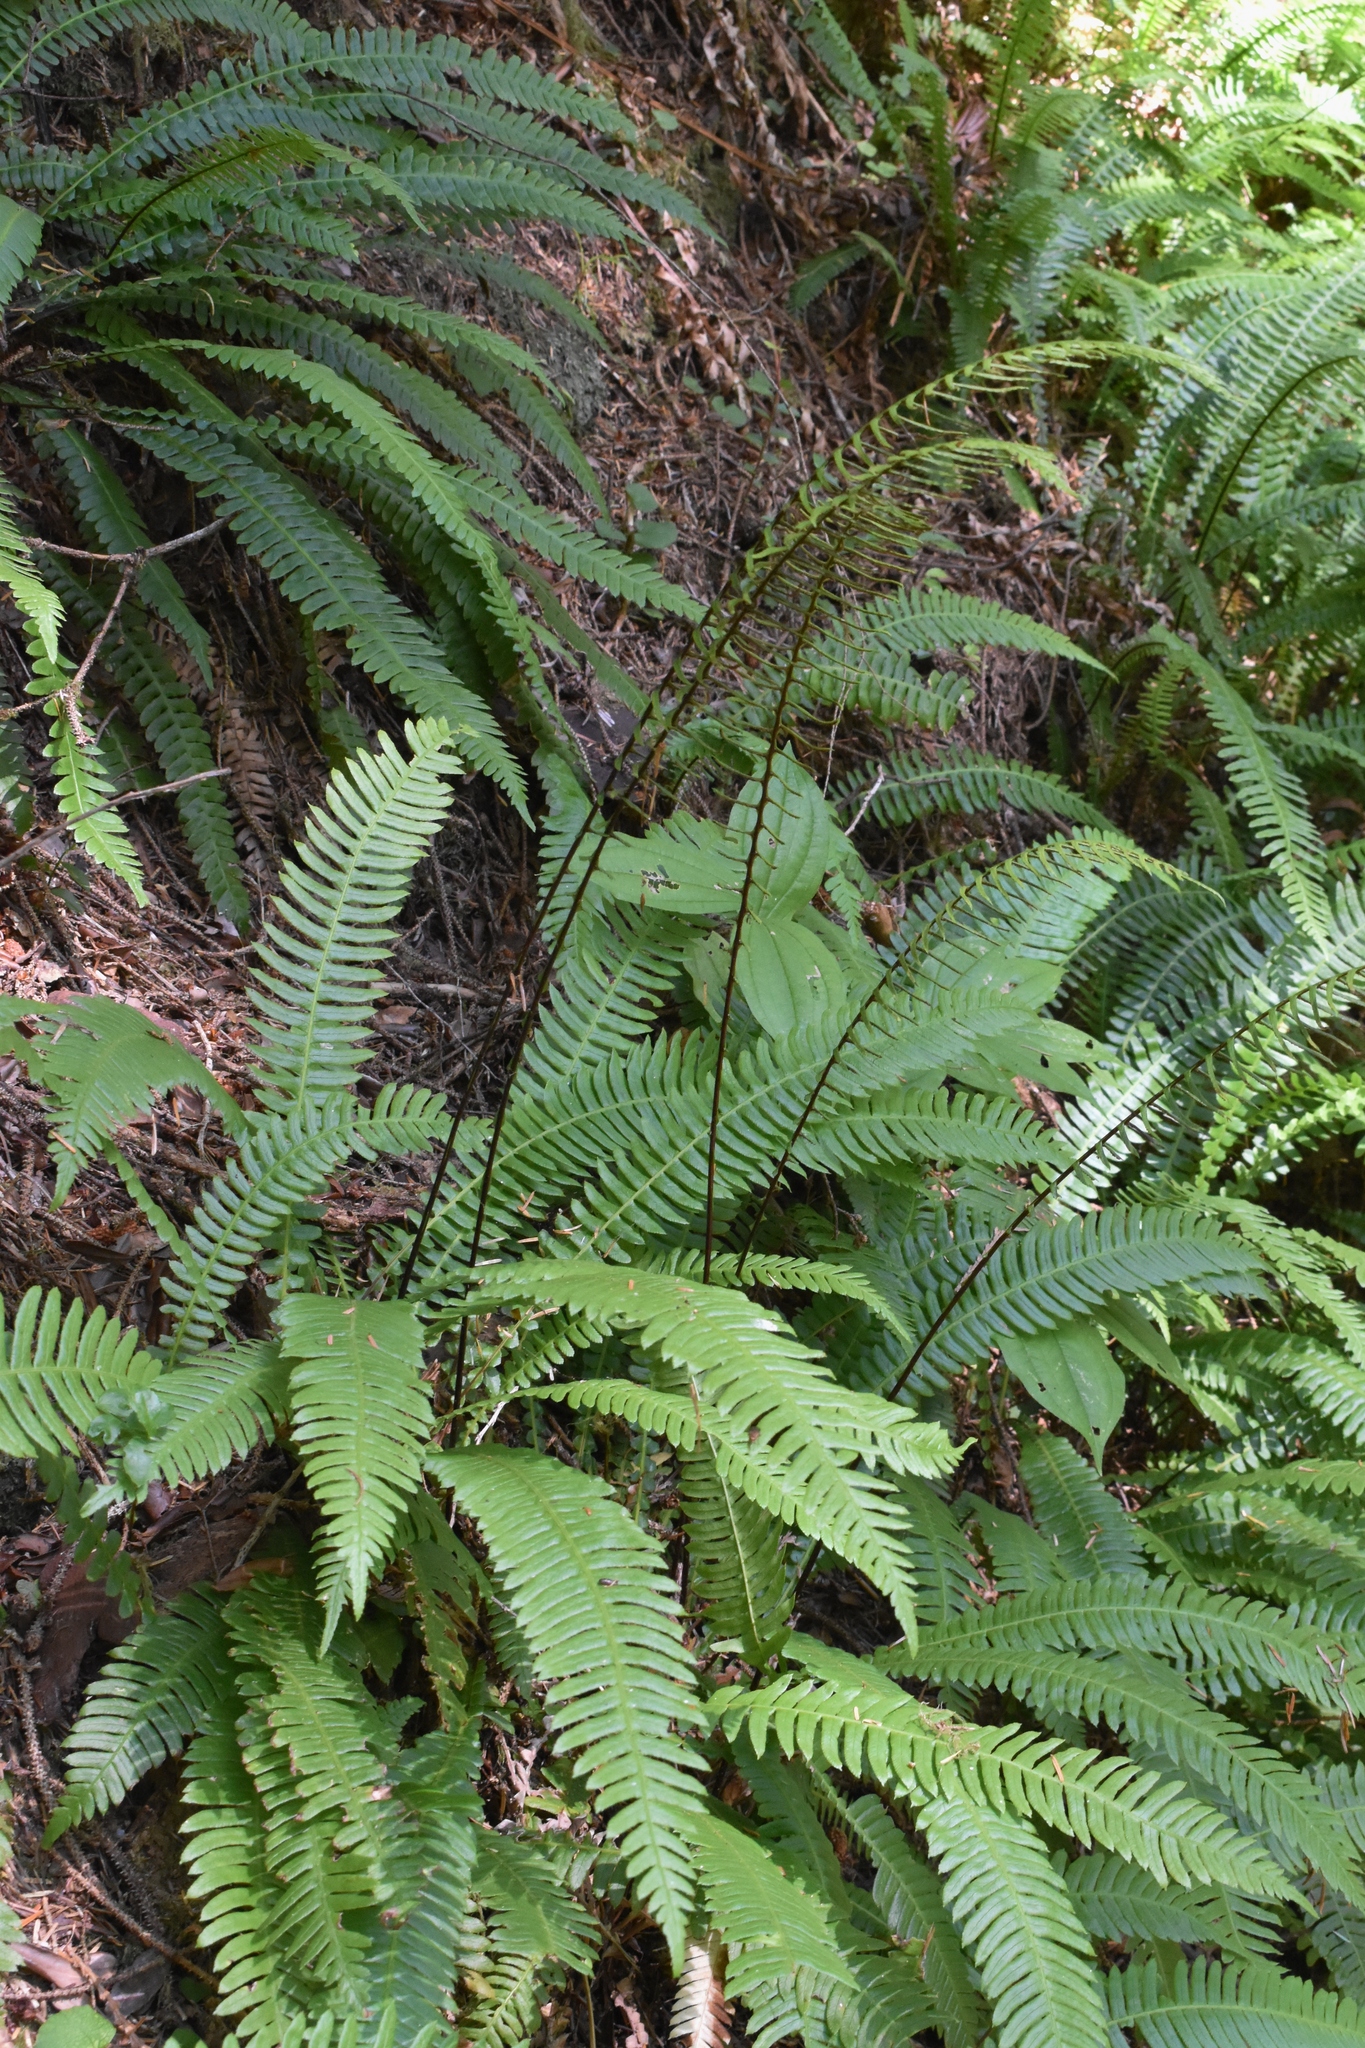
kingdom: Plantae
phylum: Tracheophyta
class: Polypodiopsida
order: Polypodiales
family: Blechnaceae
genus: Struthiopteris
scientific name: Struthiopteris spicant
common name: Deer fern
